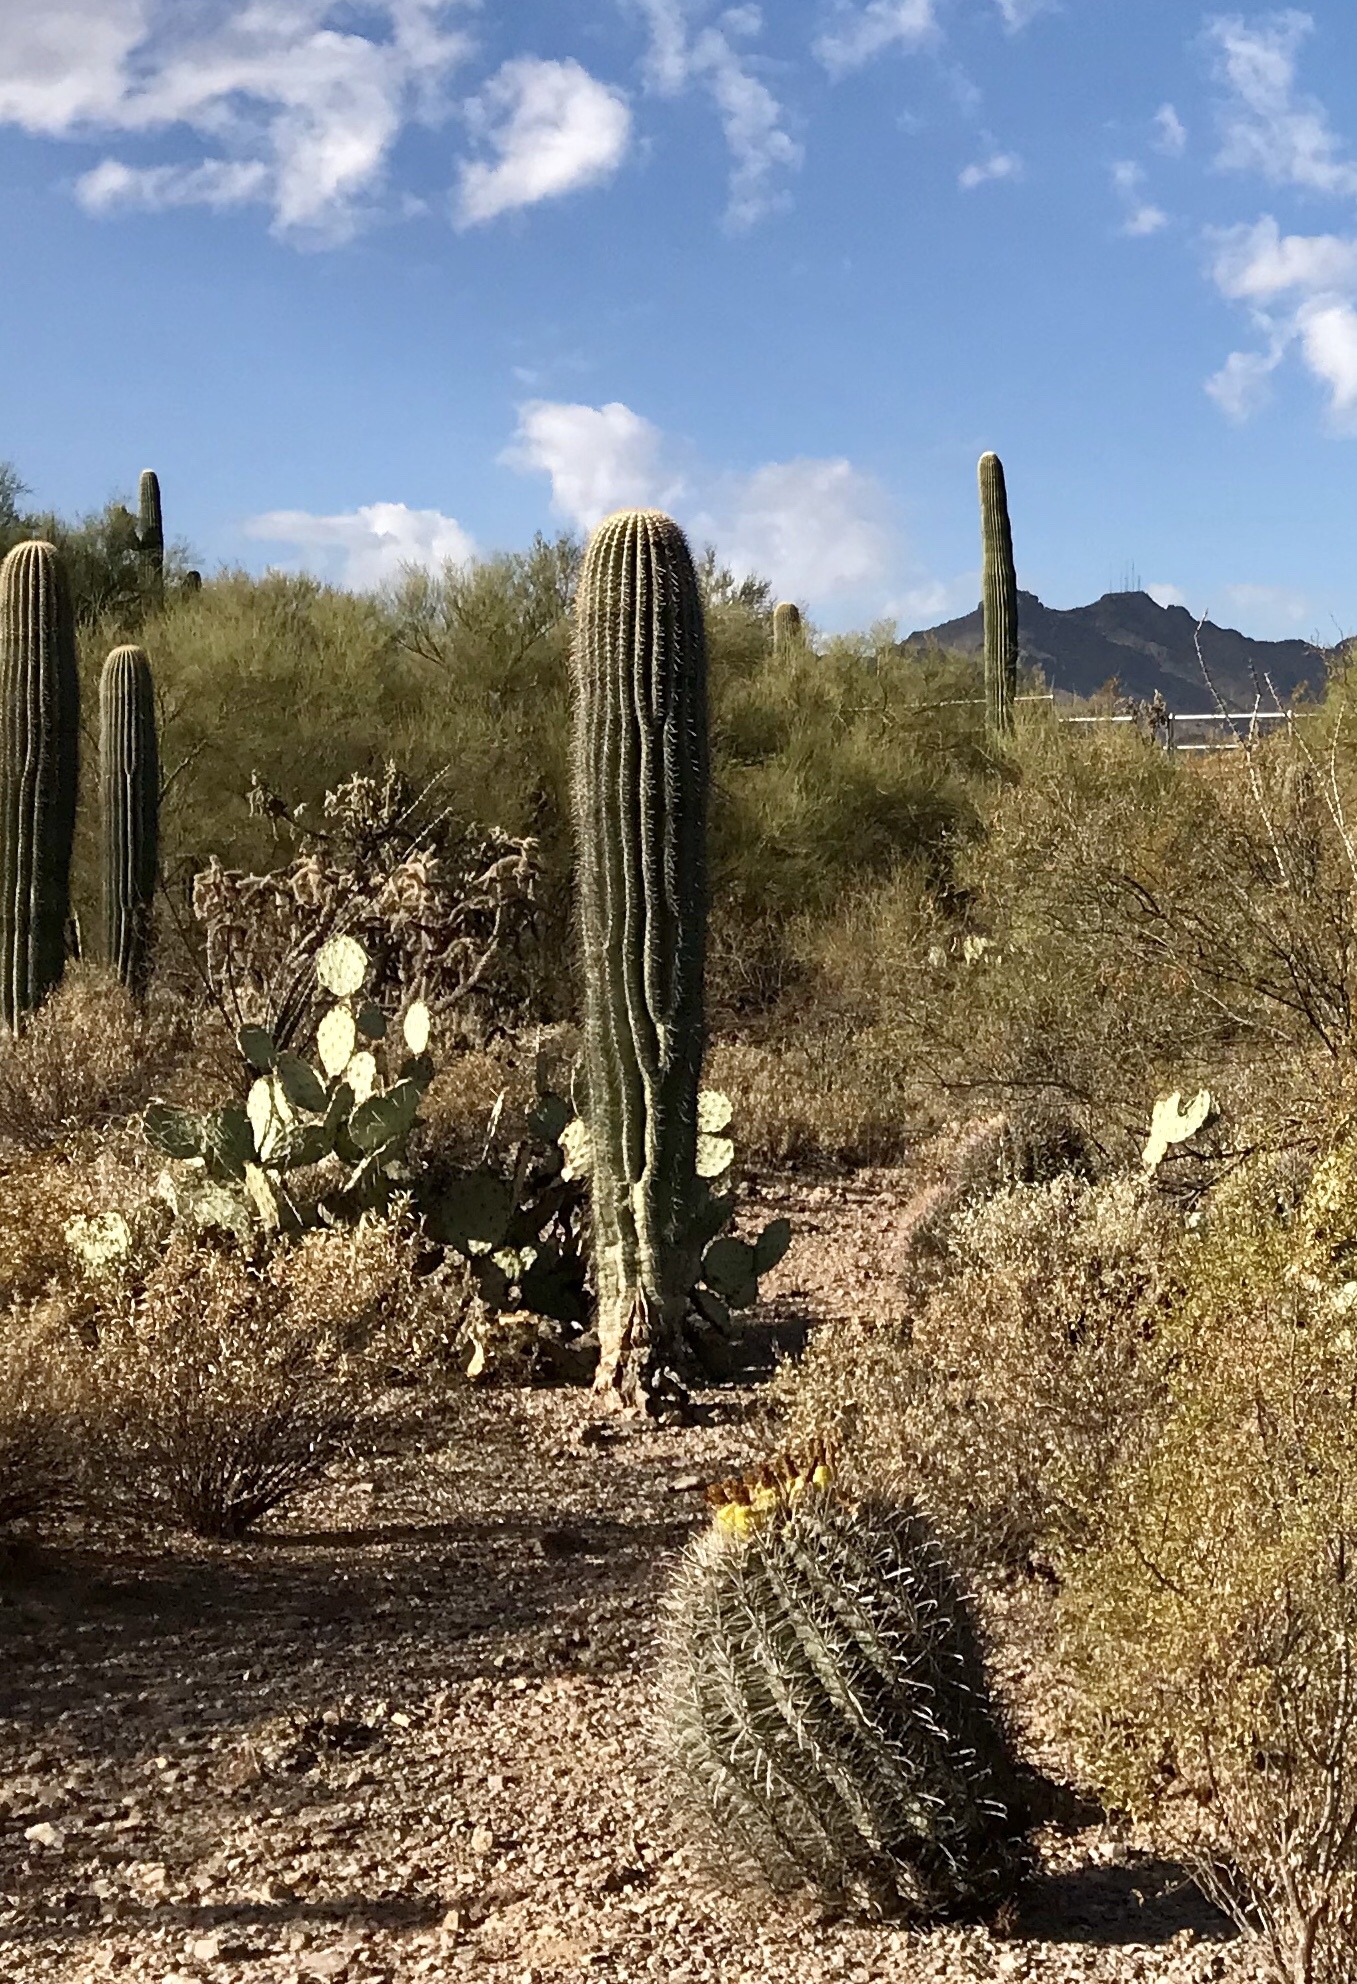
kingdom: Plantae
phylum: Tracheophyta
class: Magnoliopsida
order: Caryophyllales
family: Cactaceae
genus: Carnegiea
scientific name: Carnegiea gigantea
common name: Saguaro
